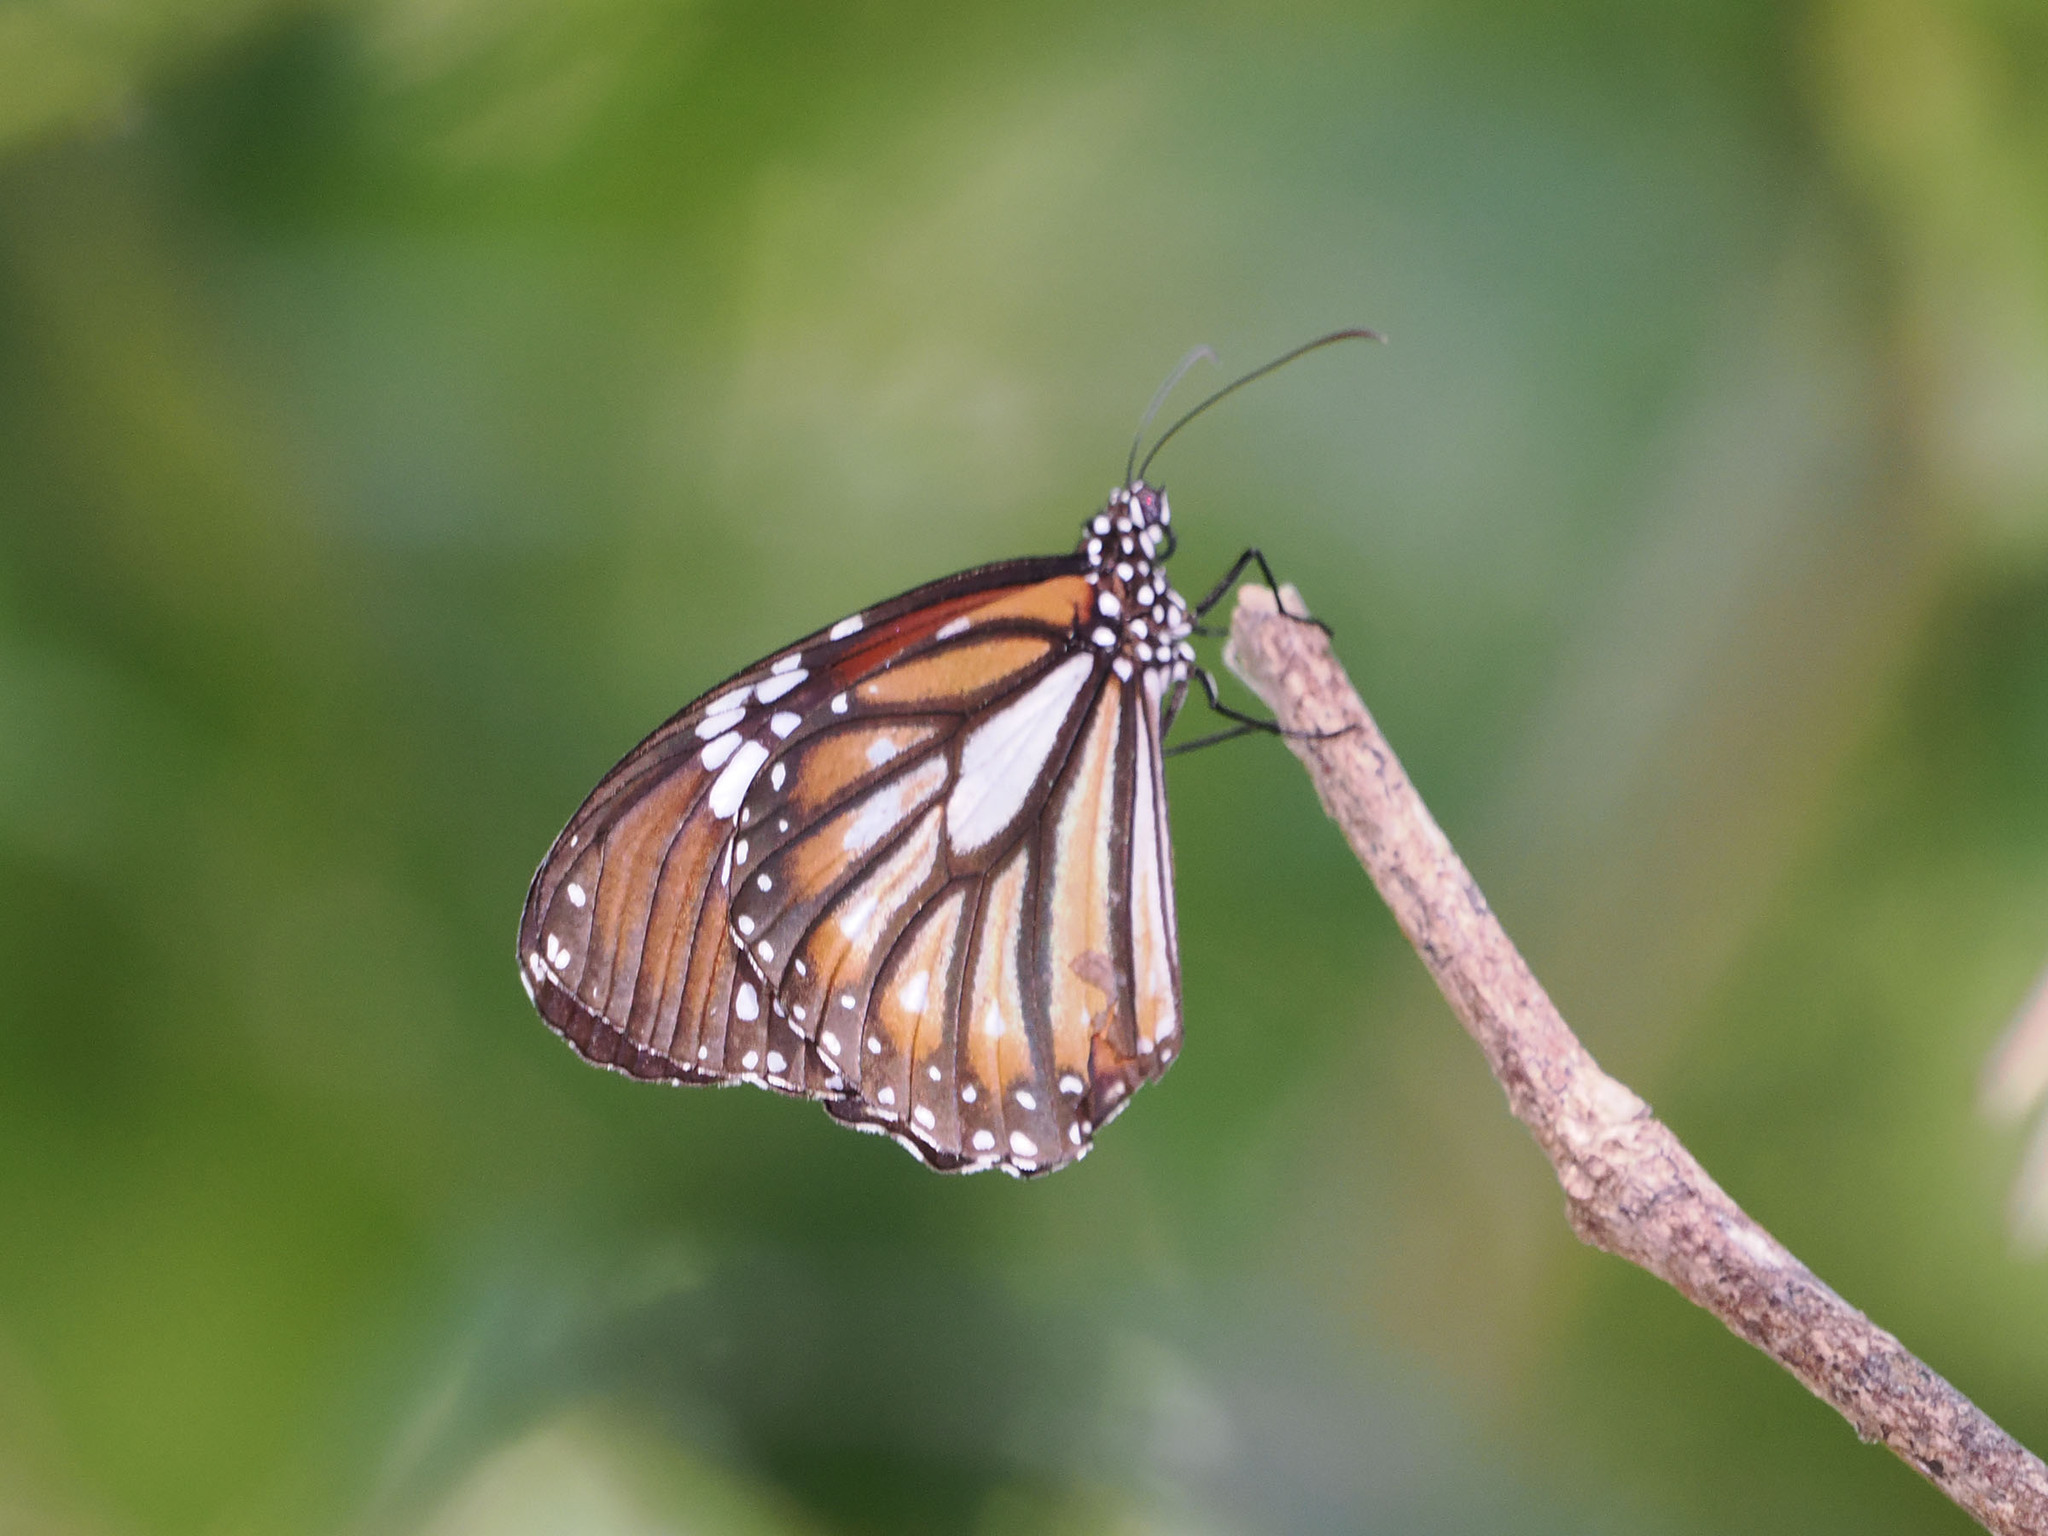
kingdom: Animalia
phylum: Arthropoda
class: Insecta
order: Lepidoptera
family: Nymphalidae
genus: Danaus
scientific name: Danaus genutia
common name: Common tiger butterfly
